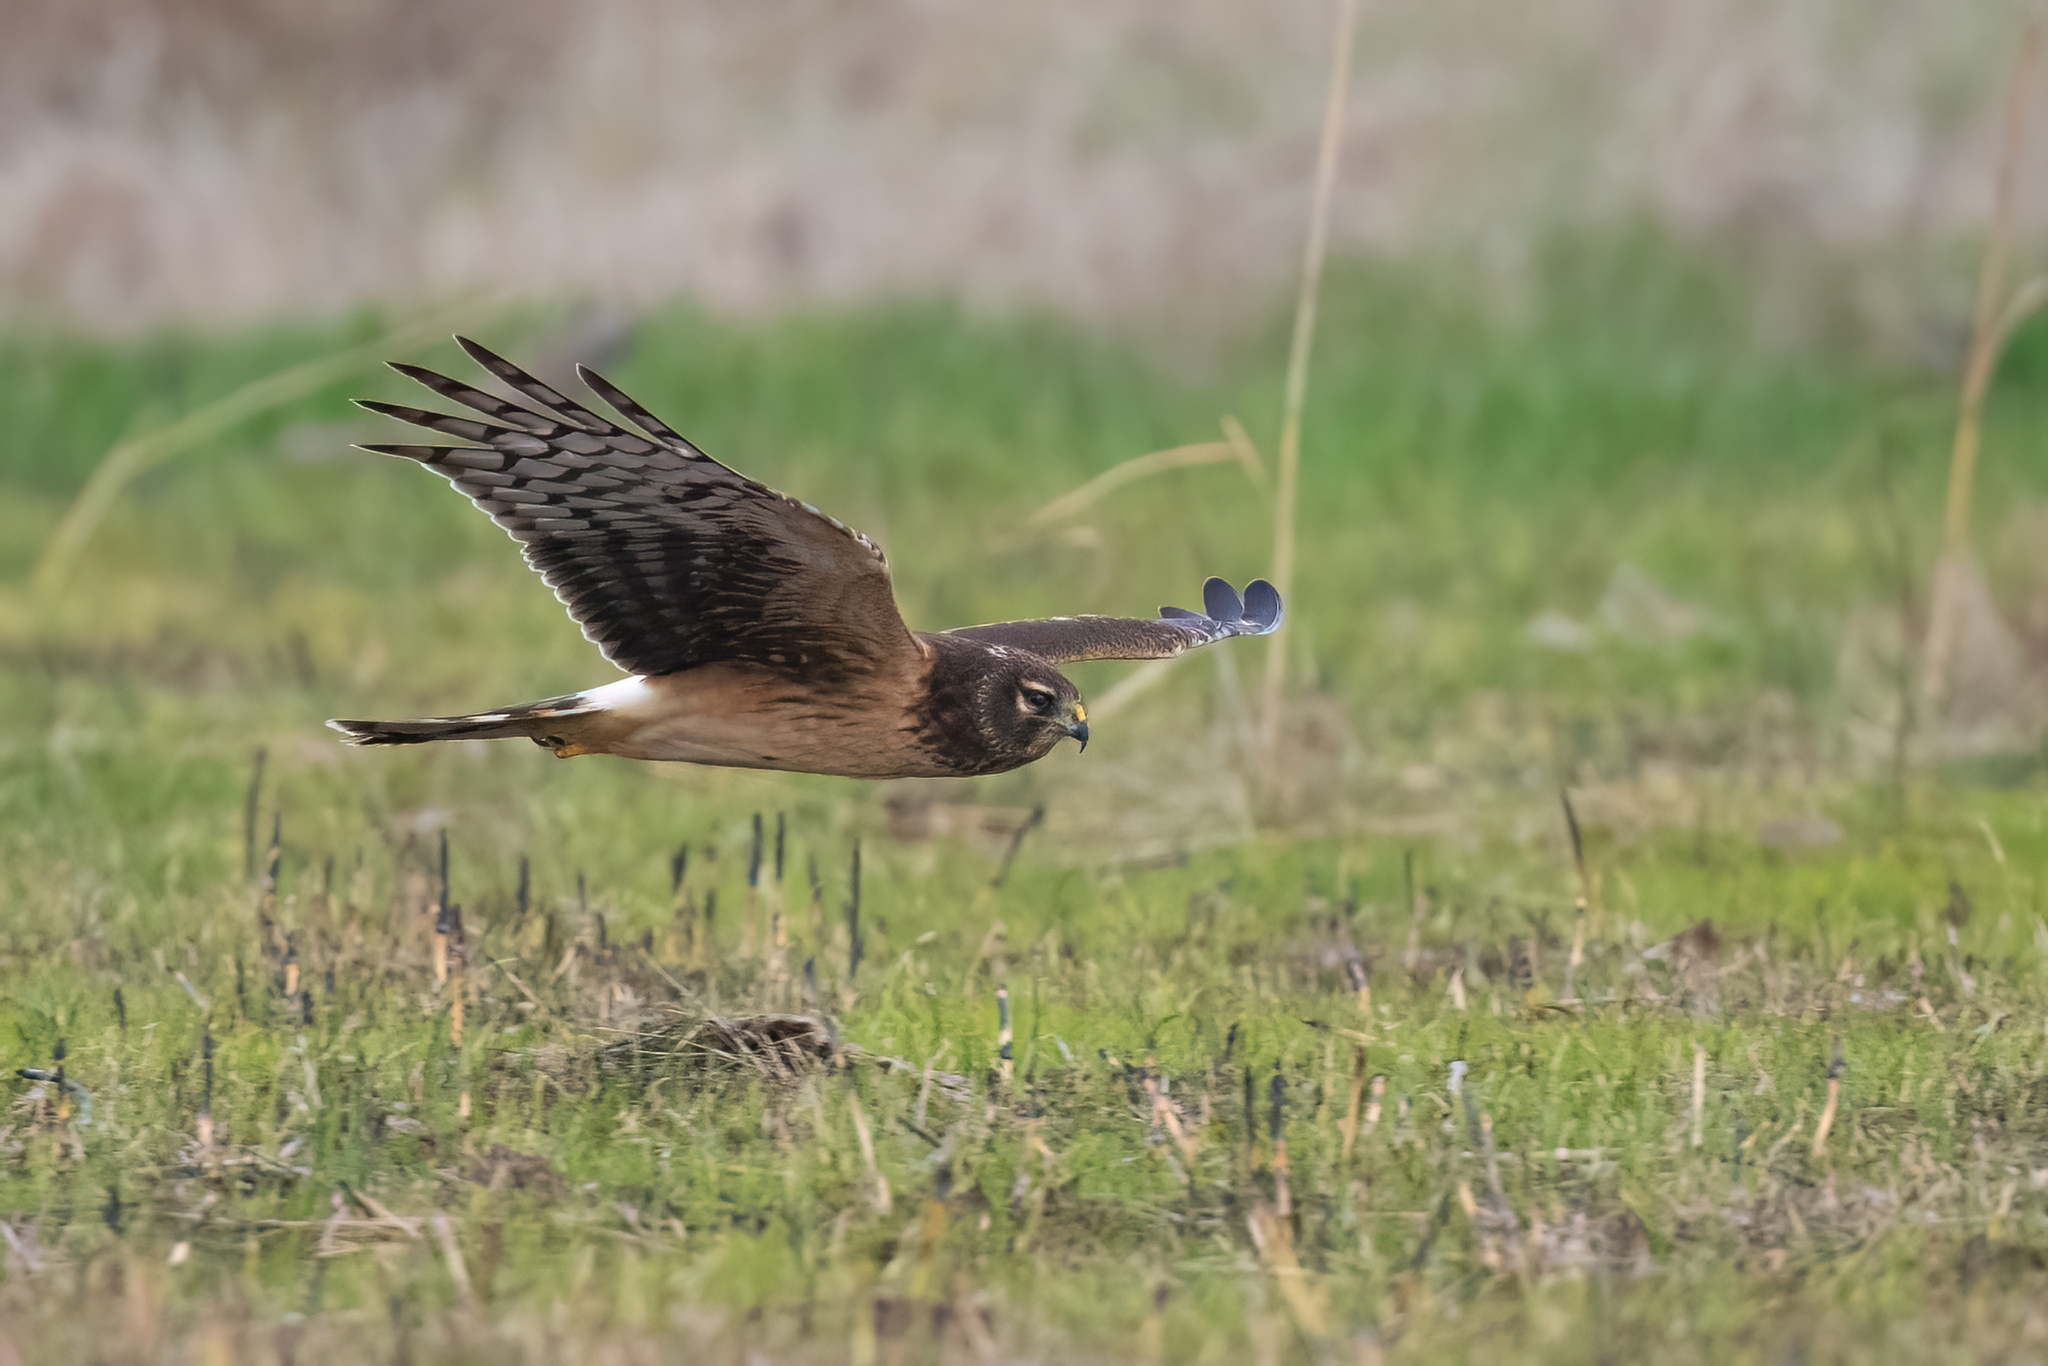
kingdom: Animalia
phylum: Chordata
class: Aves
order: Accipitriformes
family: Accipitridae
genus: Circus
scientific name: Circus cyaneus
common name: Hen harrier
